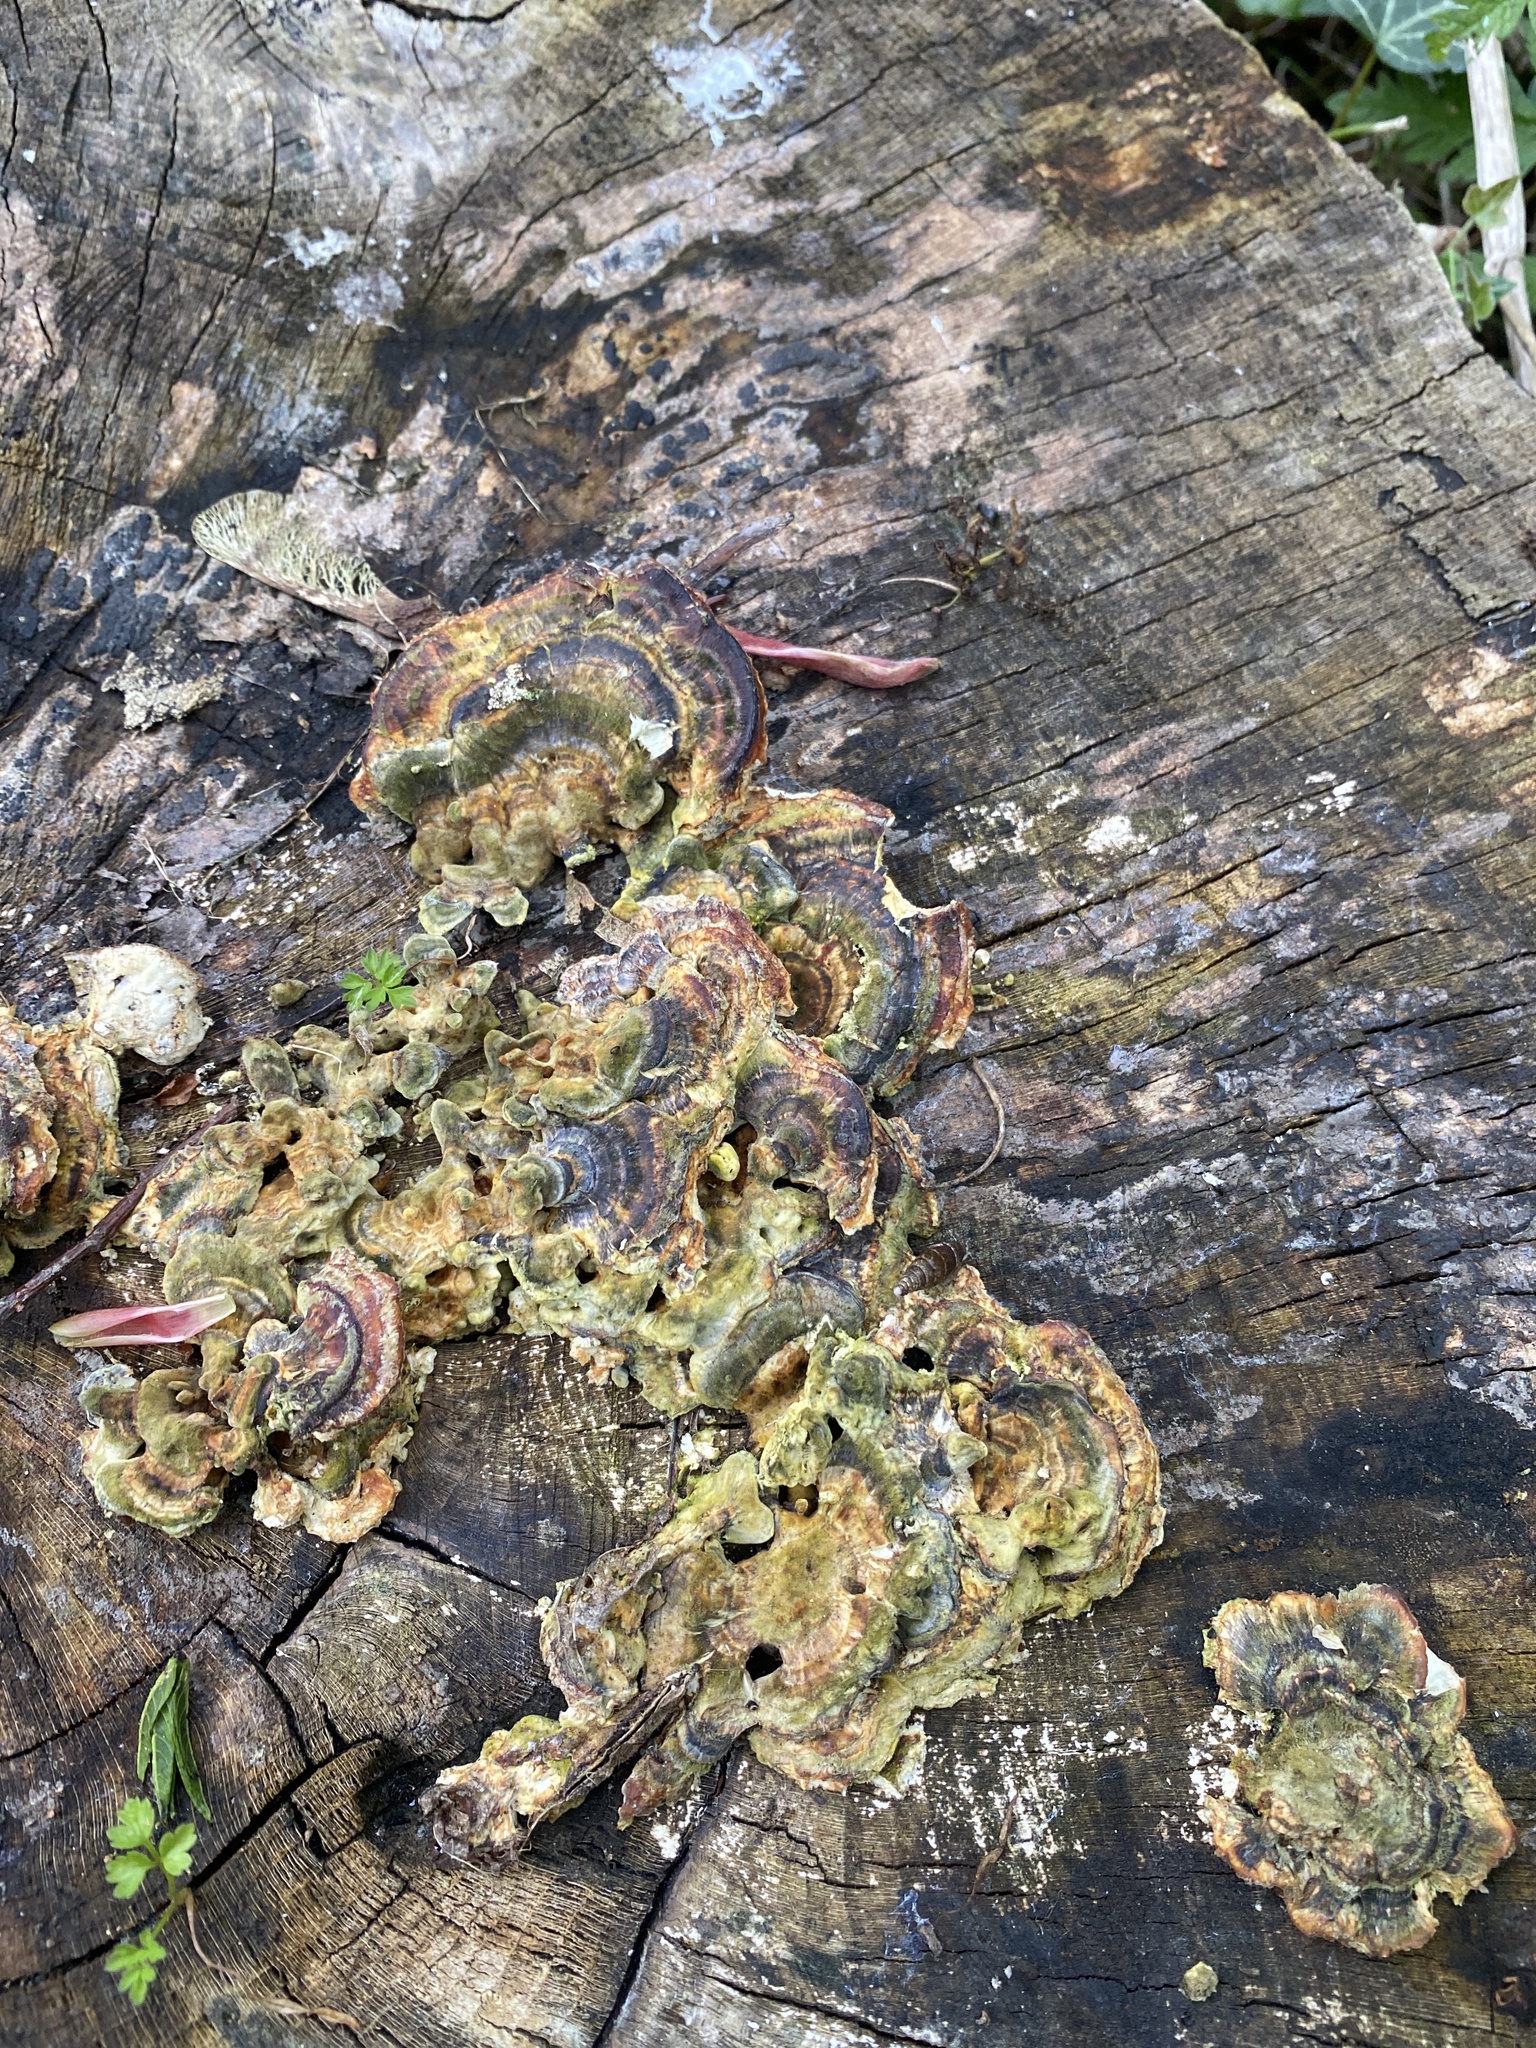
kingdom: Fungi
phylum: Basidiomycota
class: Agaricomycetes
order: Polyporales
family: Polyporaceae
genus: Trametes
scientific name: Trametes versicolor
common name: Turkeytail
